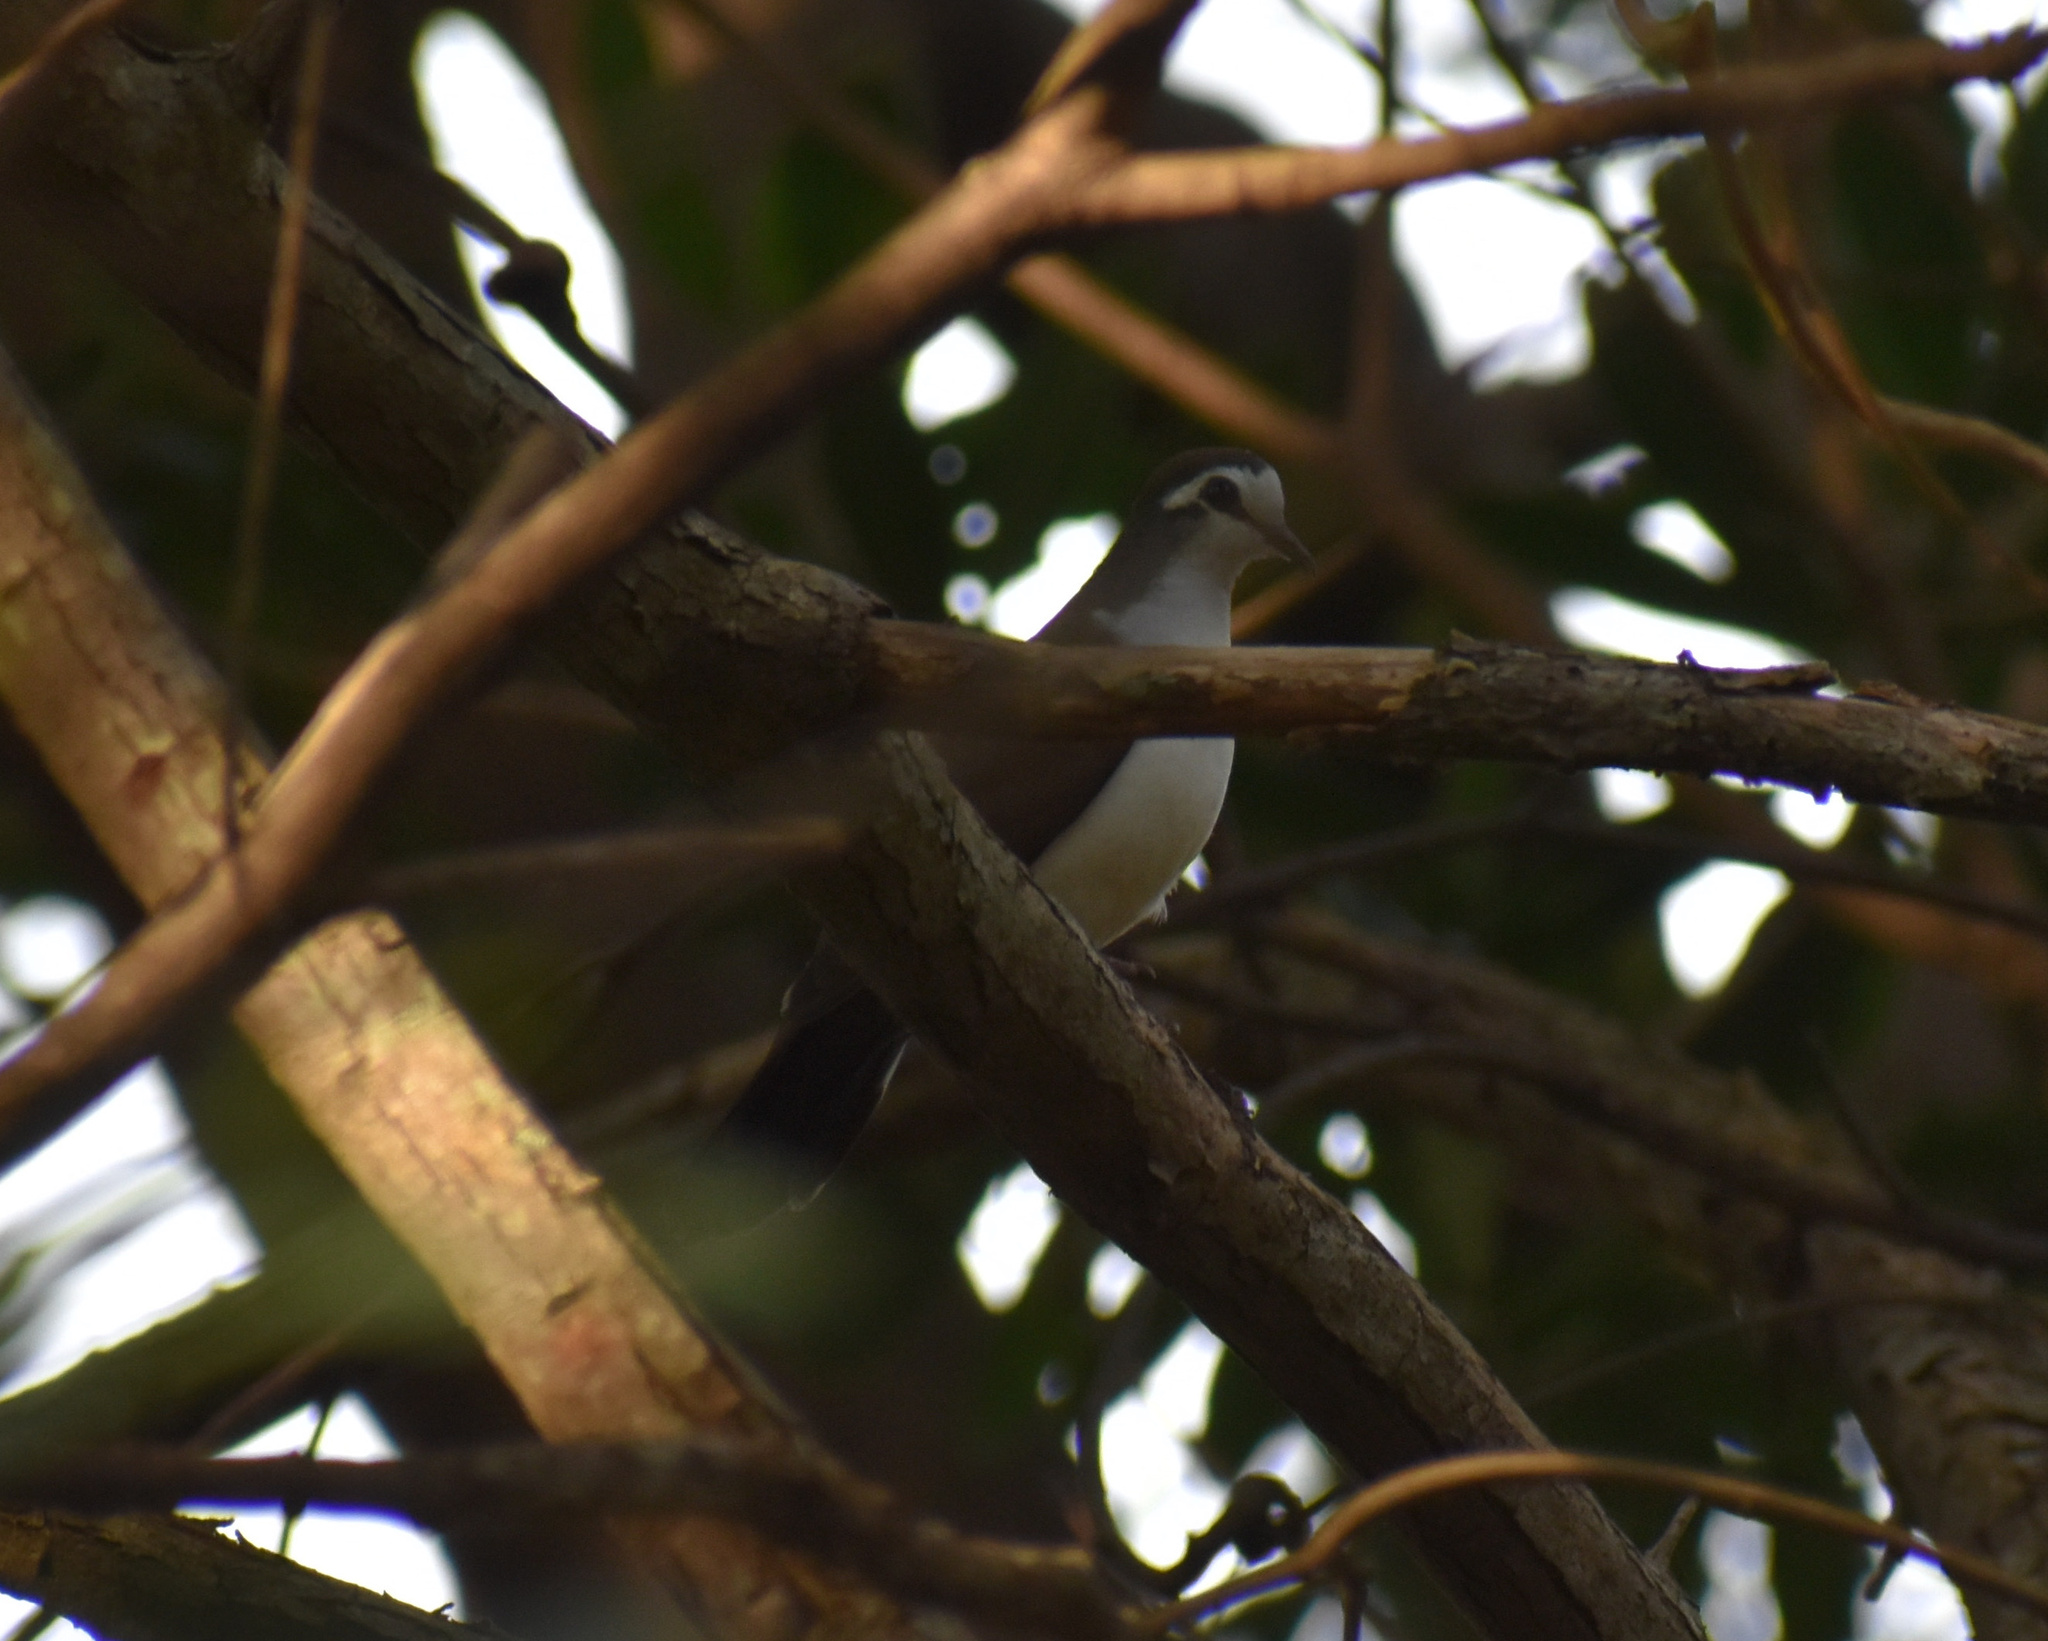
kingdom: Animalia
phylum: Chordata
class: Aves
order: Columbiformes
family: Columbidae
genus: Turtur
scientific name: Turtur tympanistria
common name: Tambourine dove
